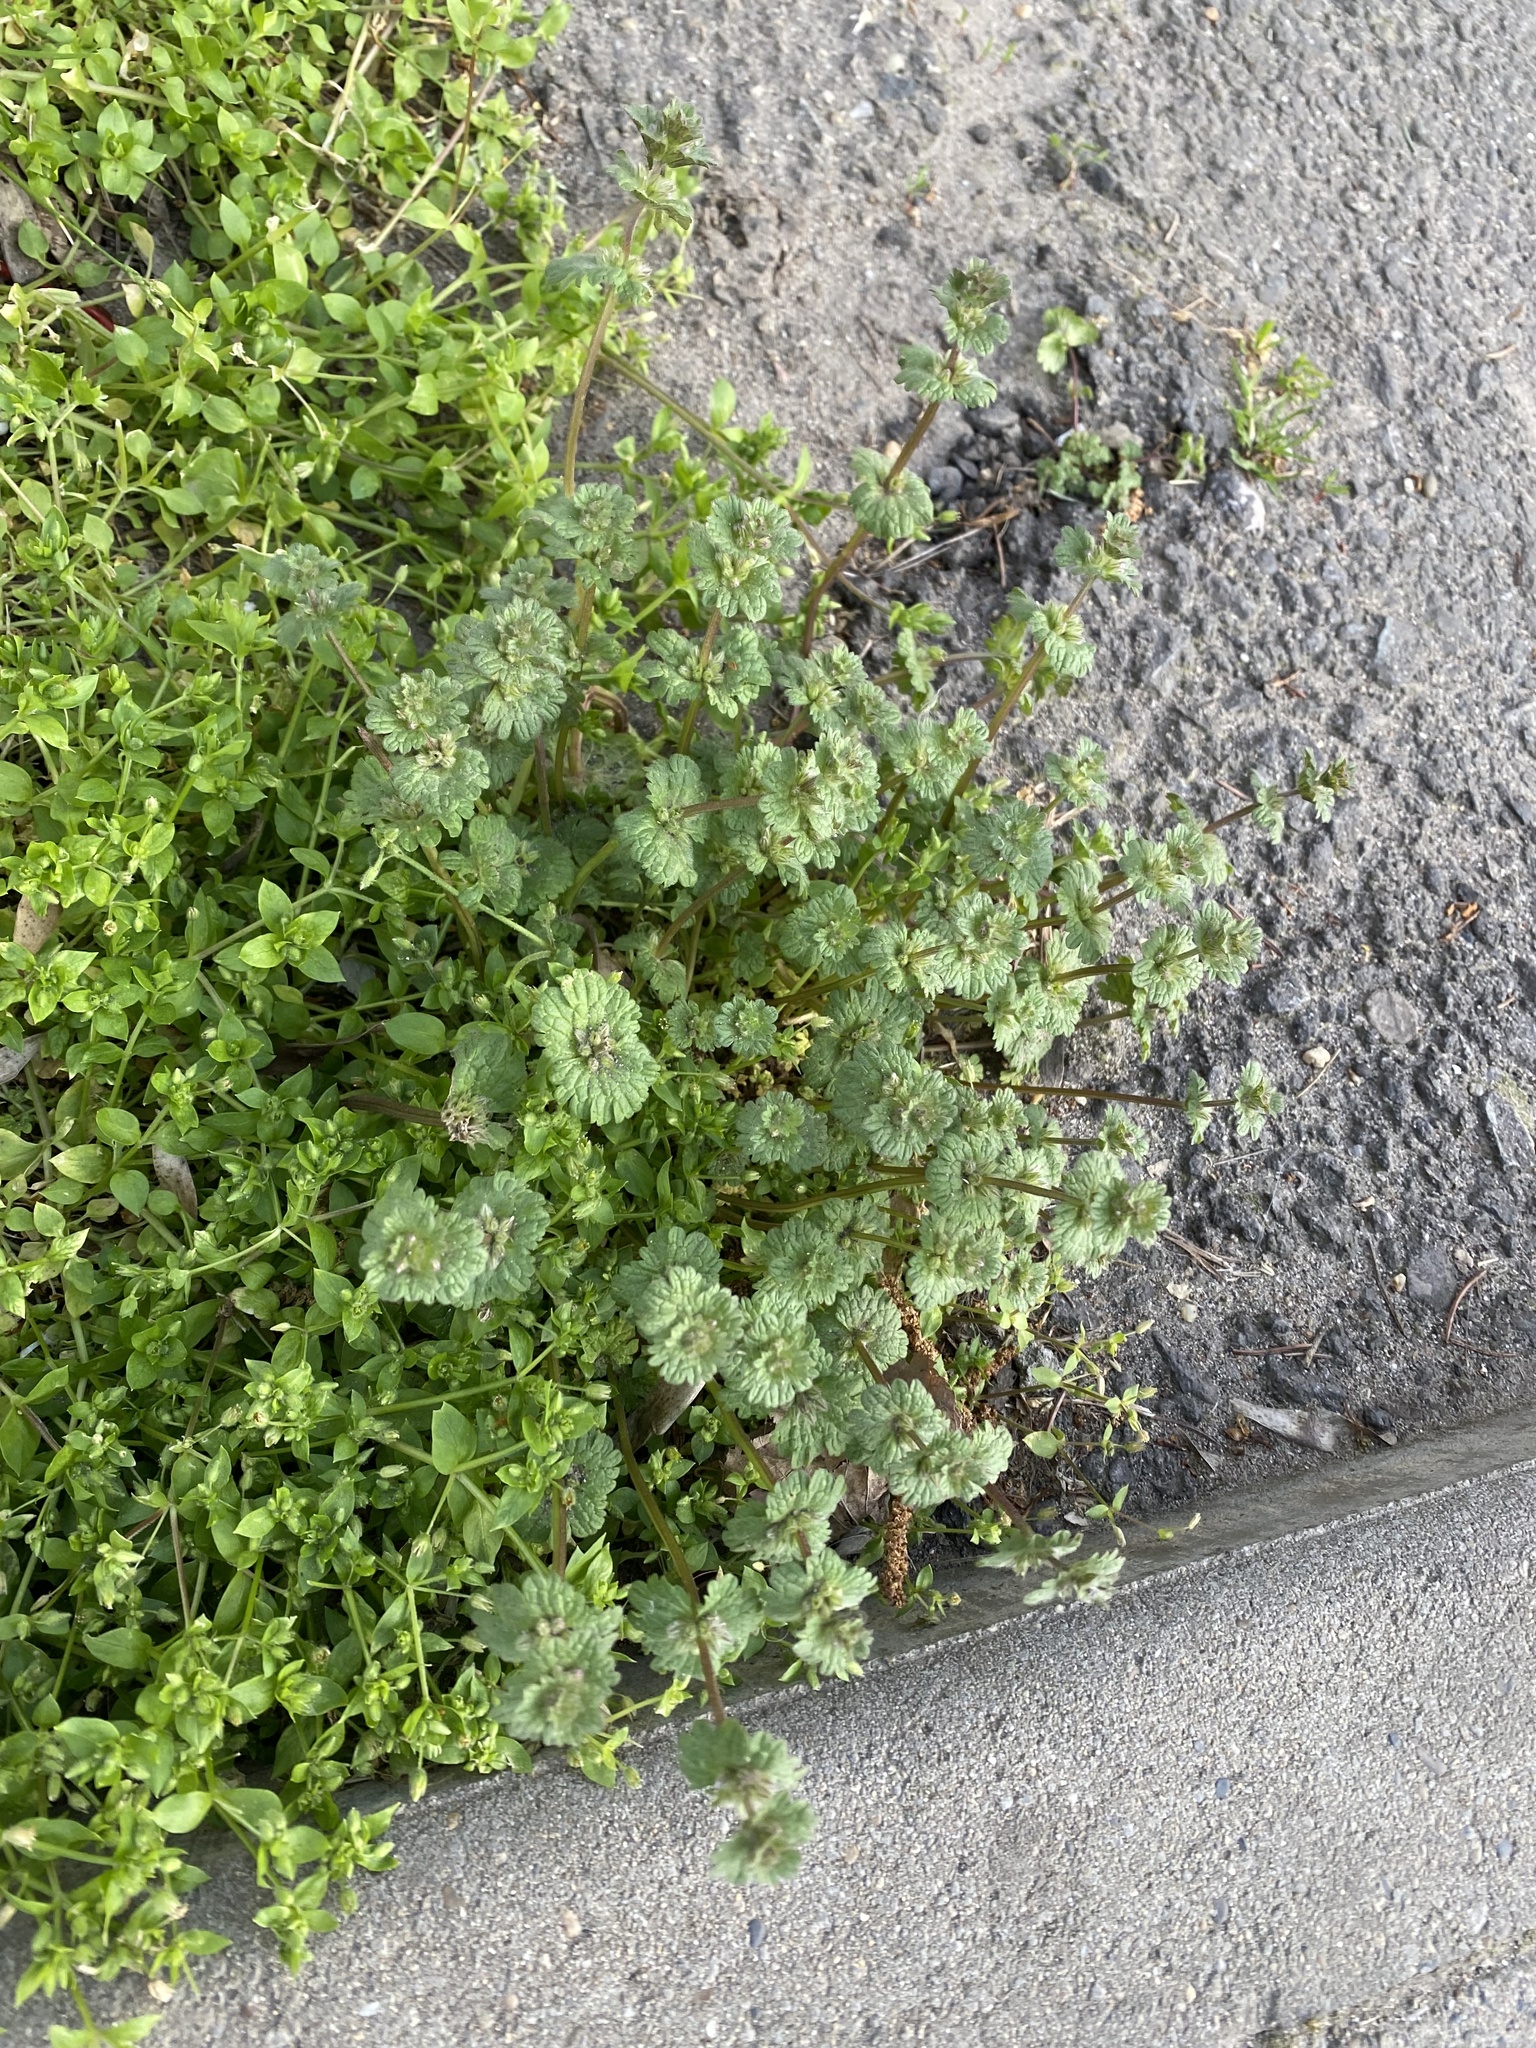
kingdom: Plantae
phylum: Tracheophyta
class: Magnoliopsida
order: Lamiales
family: Lamiaceae
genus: Lamium
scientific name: Lamium amplexicaule
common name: Henbit dead-nettle
